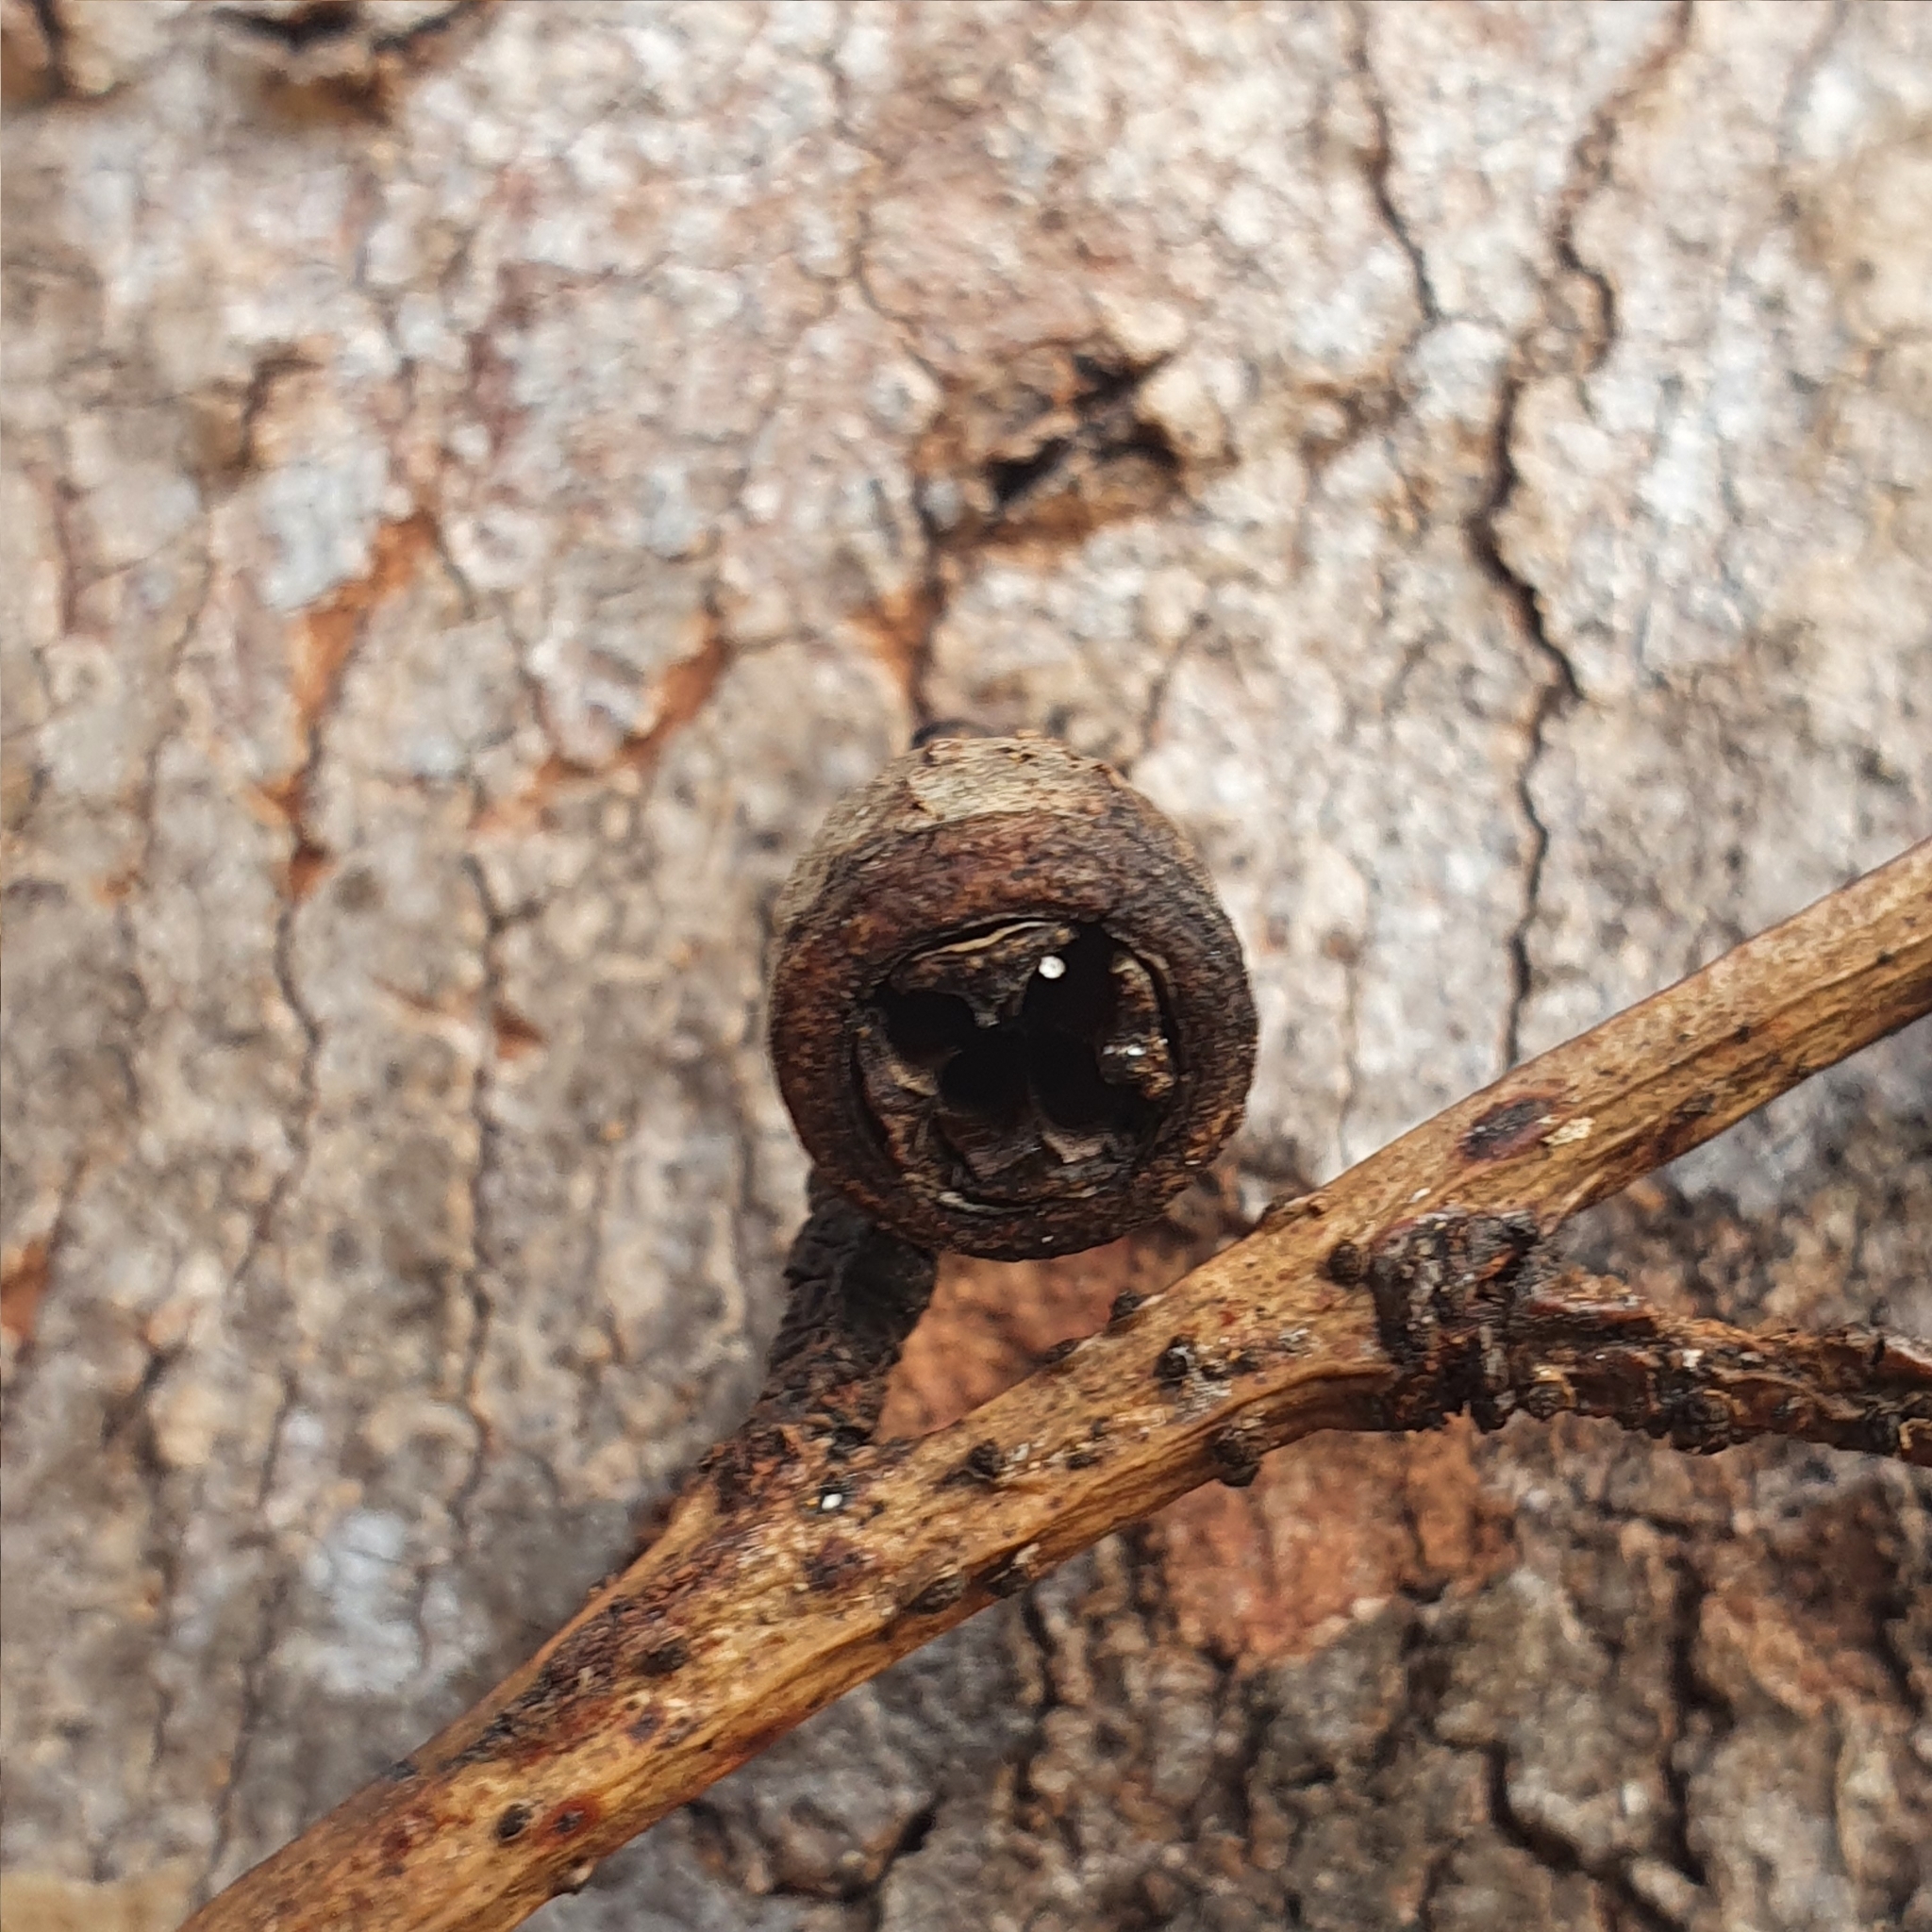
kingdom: Plantae
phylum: Tracheophyta
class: Magnoliopsida
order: Myrtales
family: Myrtaceae
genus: Eucalyptus
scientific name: Eucalyptus punctata
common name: Gray gum
